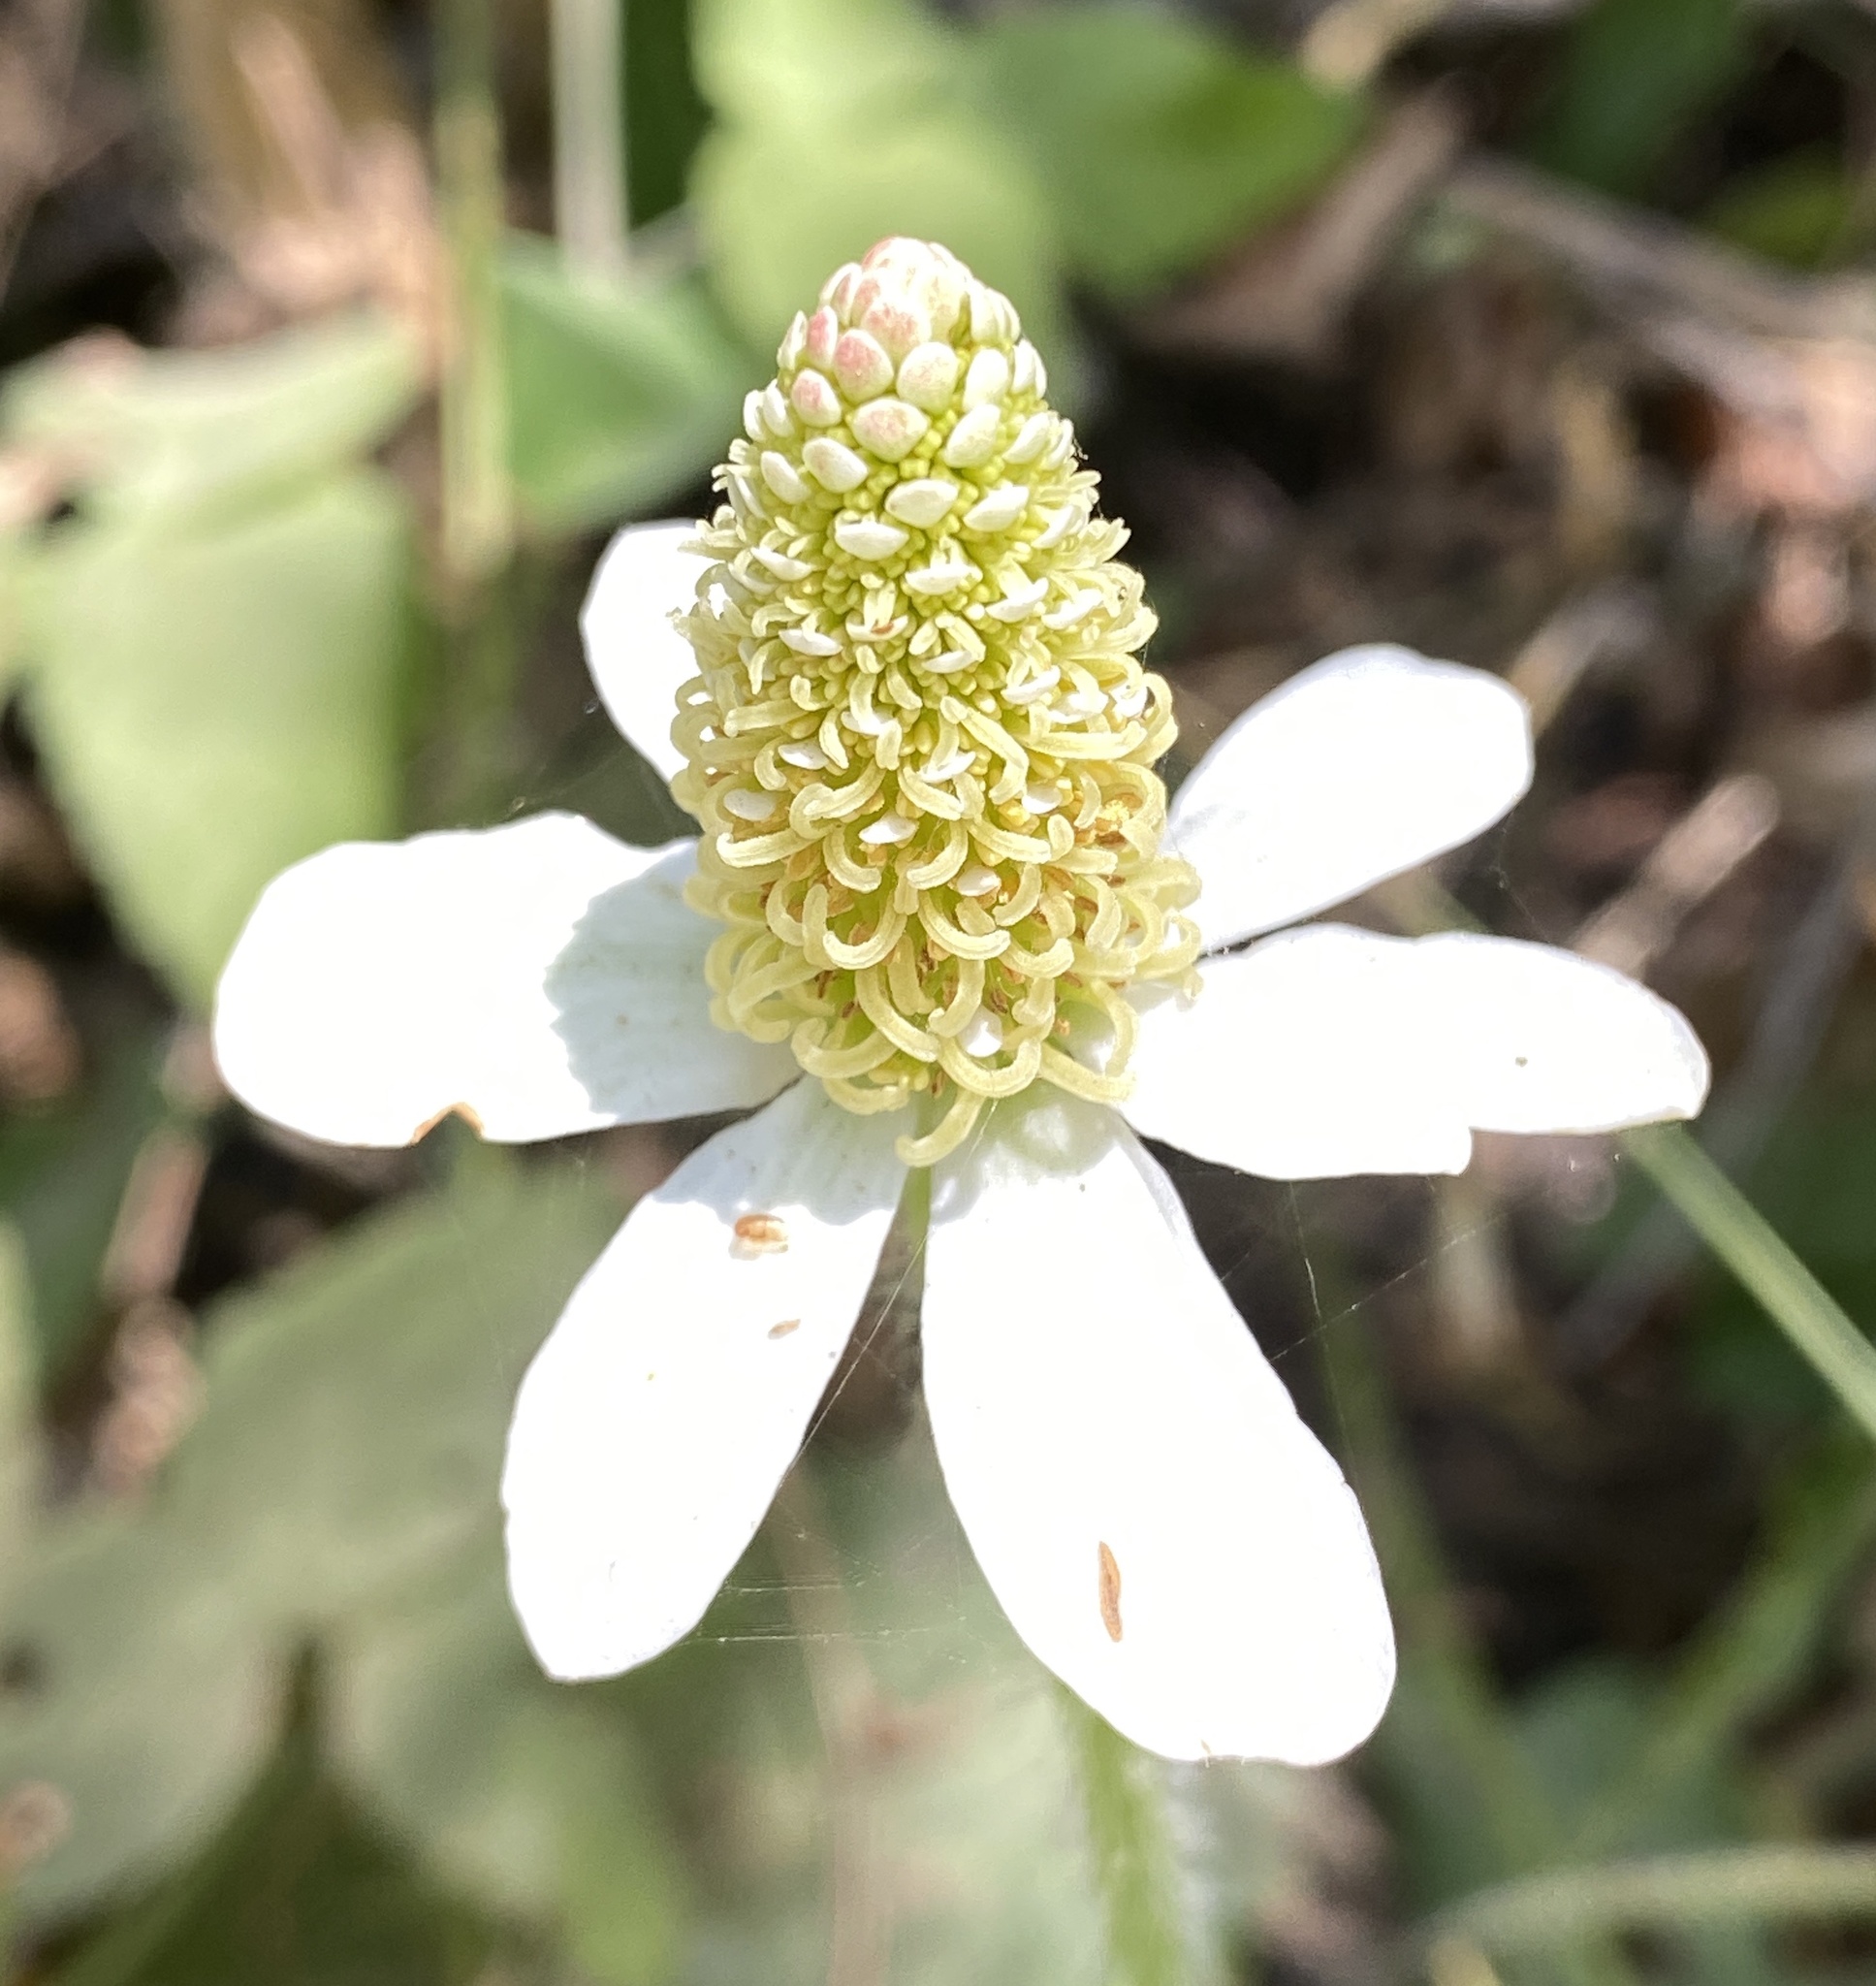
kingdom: Plantae
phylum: Tracheophyta
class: Magnoliopsida
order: Piperales
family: Saururaceae
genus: Anemopsis
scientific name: Anemopsis californica
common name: Apache-beads
